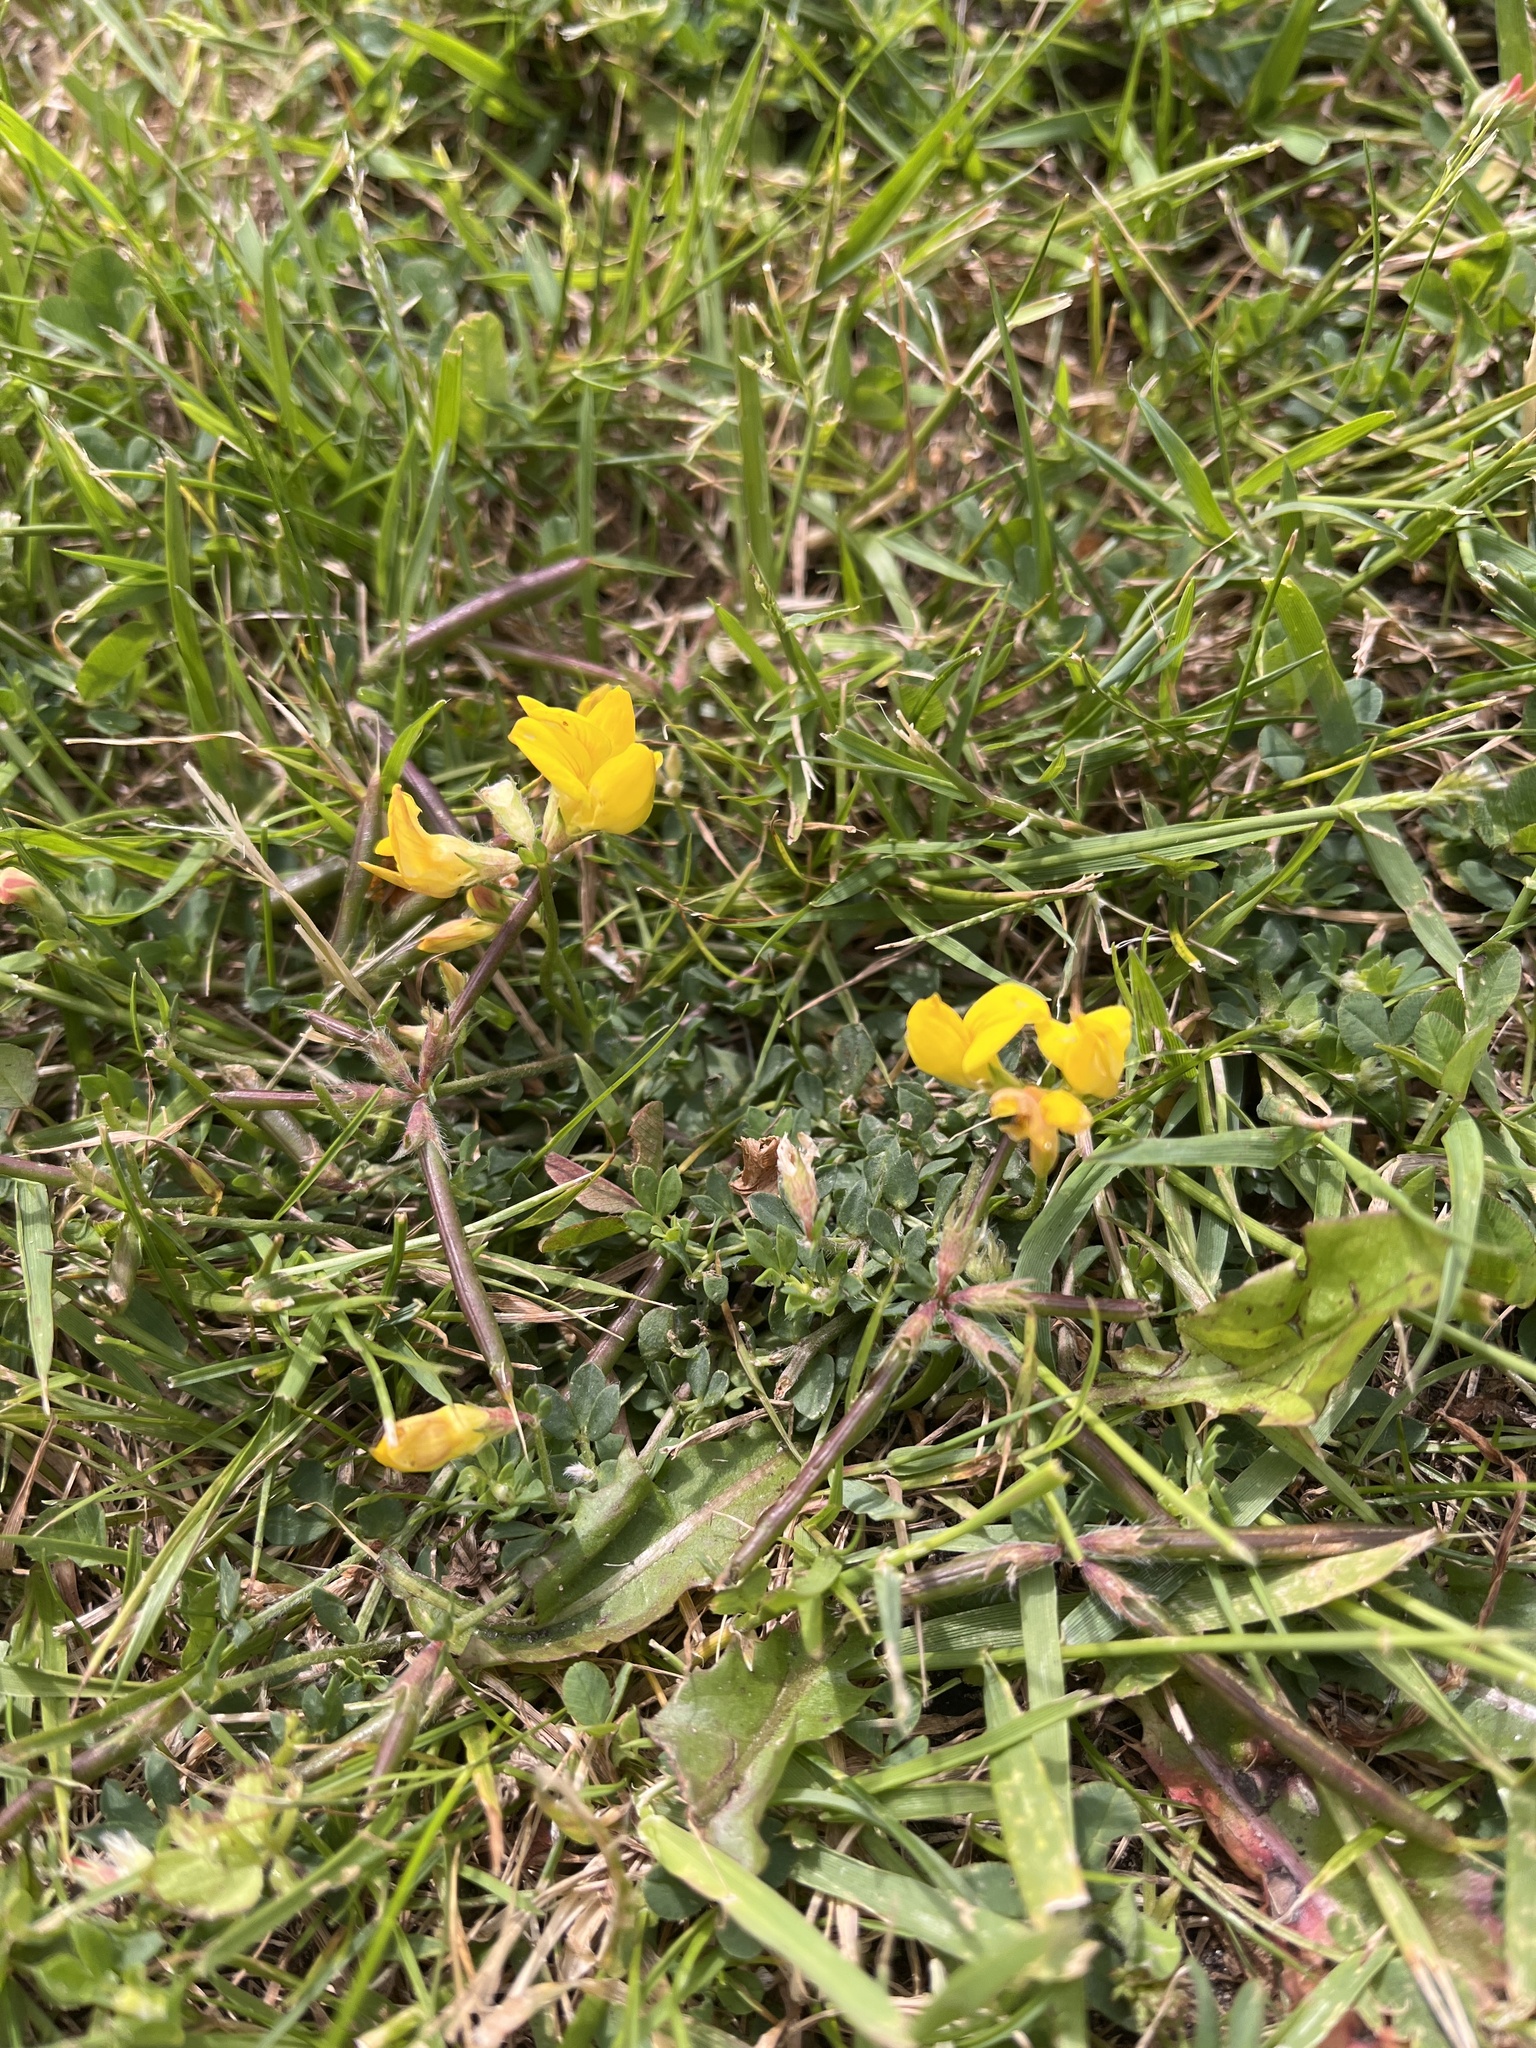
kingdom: Plantae
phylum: Tracheophyta
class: Magnoliopsida
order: Fabales
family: Fabaceae
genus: Lotus
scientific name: Lotus corniculatus
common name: Common bird's-foot-trefoil
